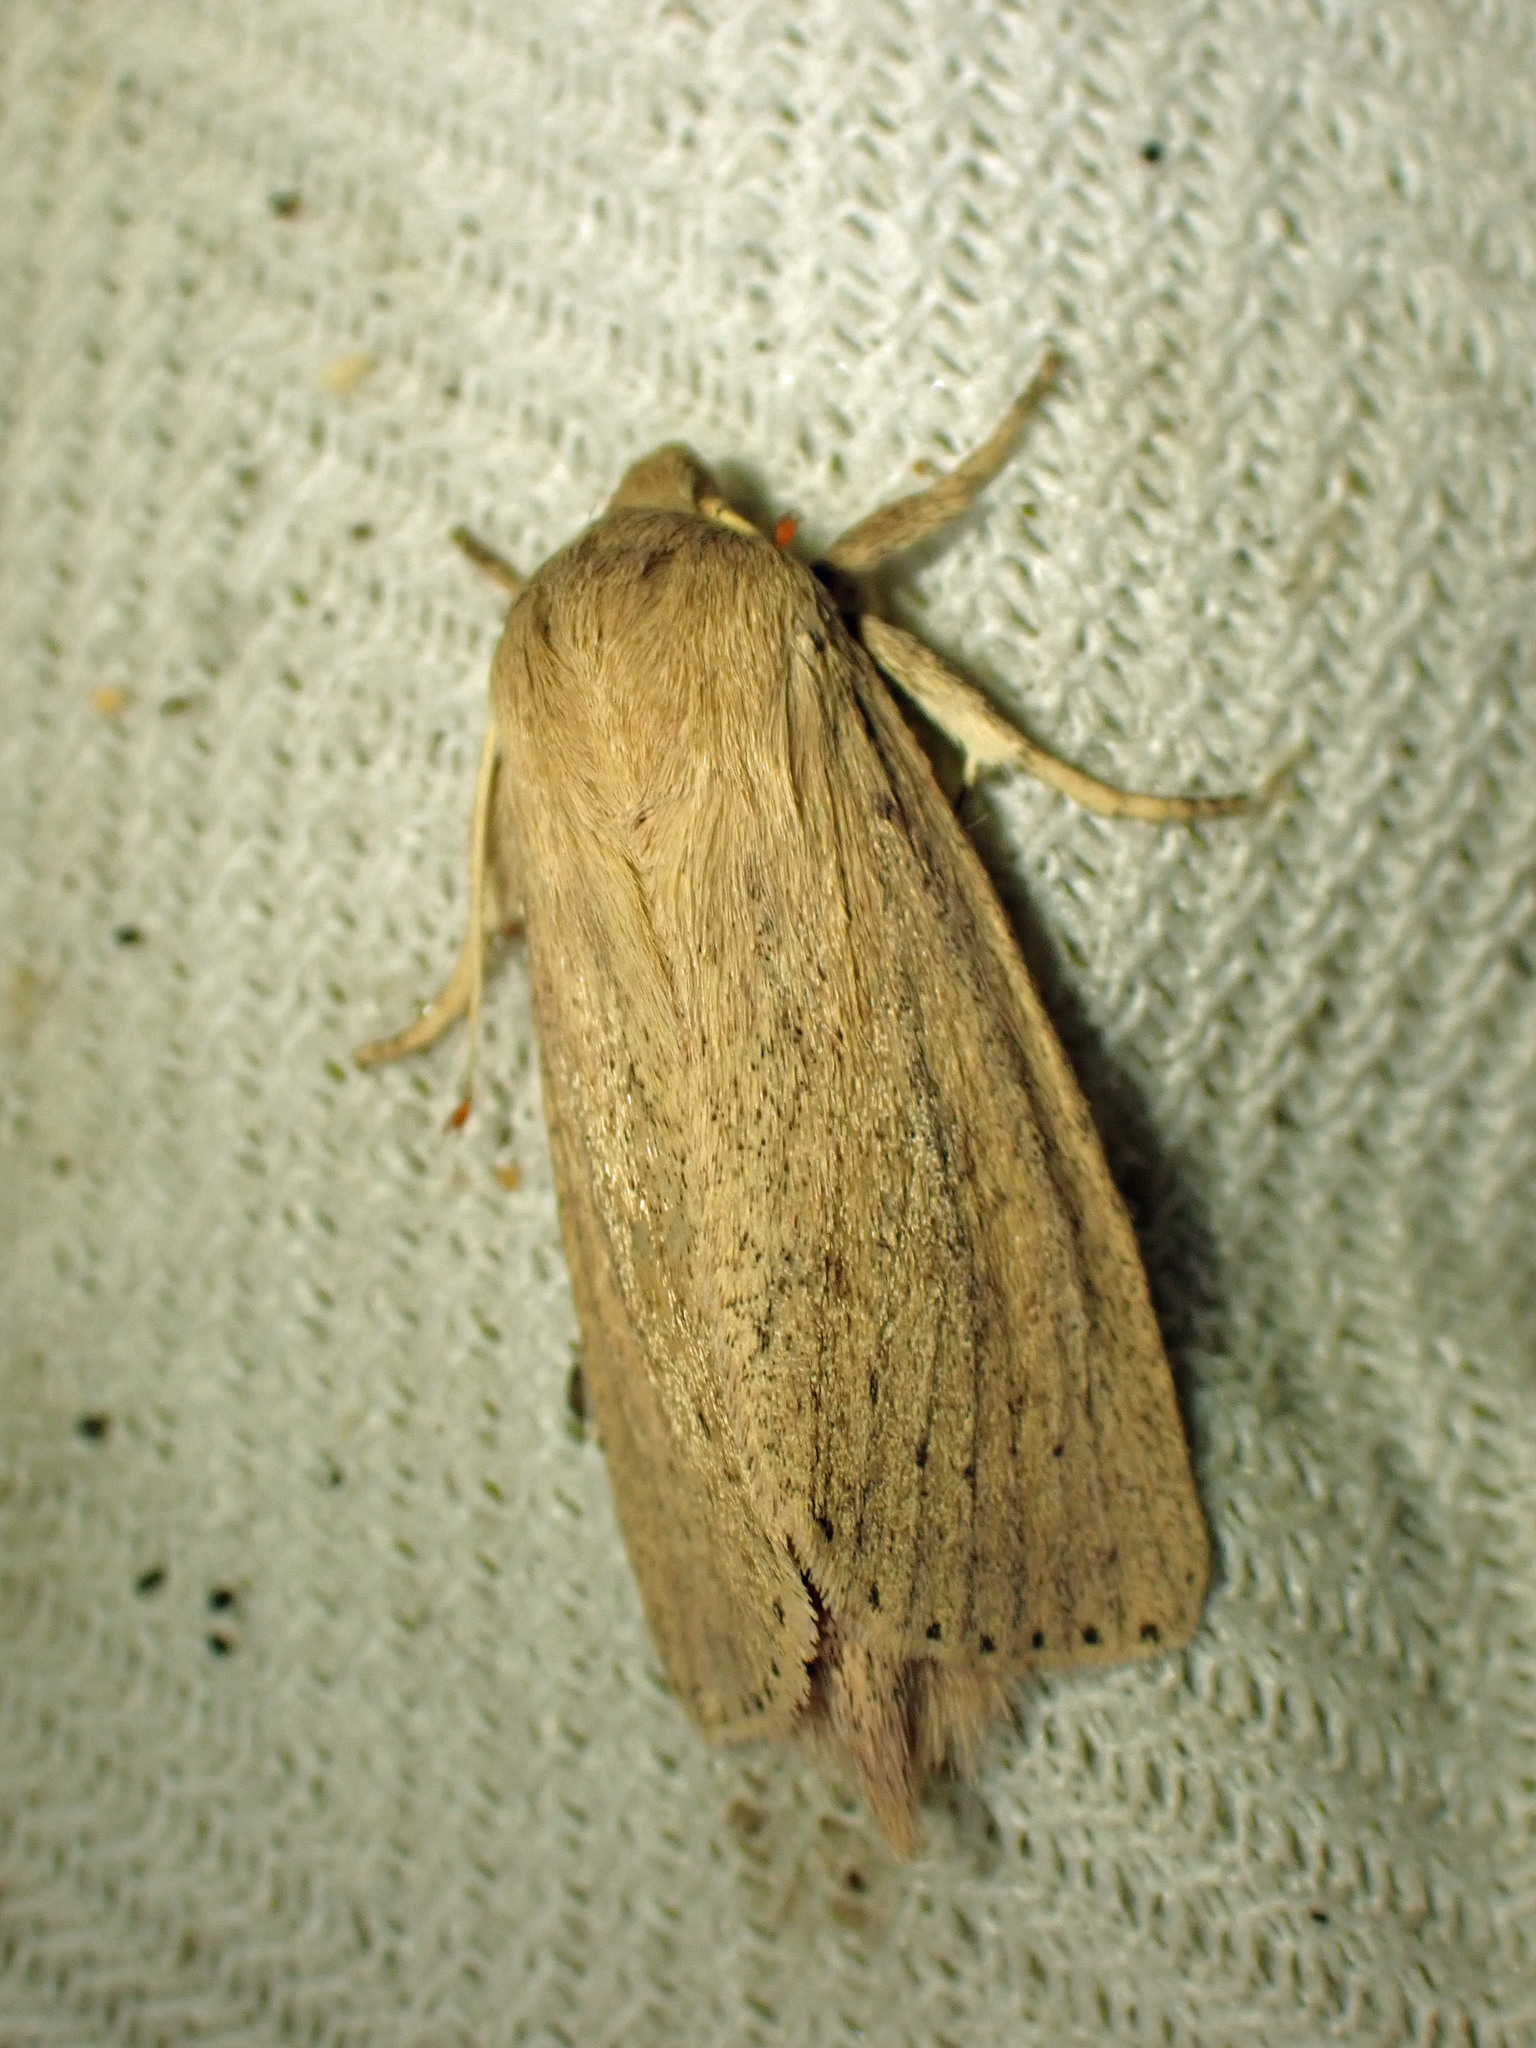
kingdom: Animalia
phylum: Arthropoda
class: Insecta
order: Lepidoptera
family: Noctuidae
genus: Globia
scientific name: Globia oblonga
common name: Oblong sedge borer moth
